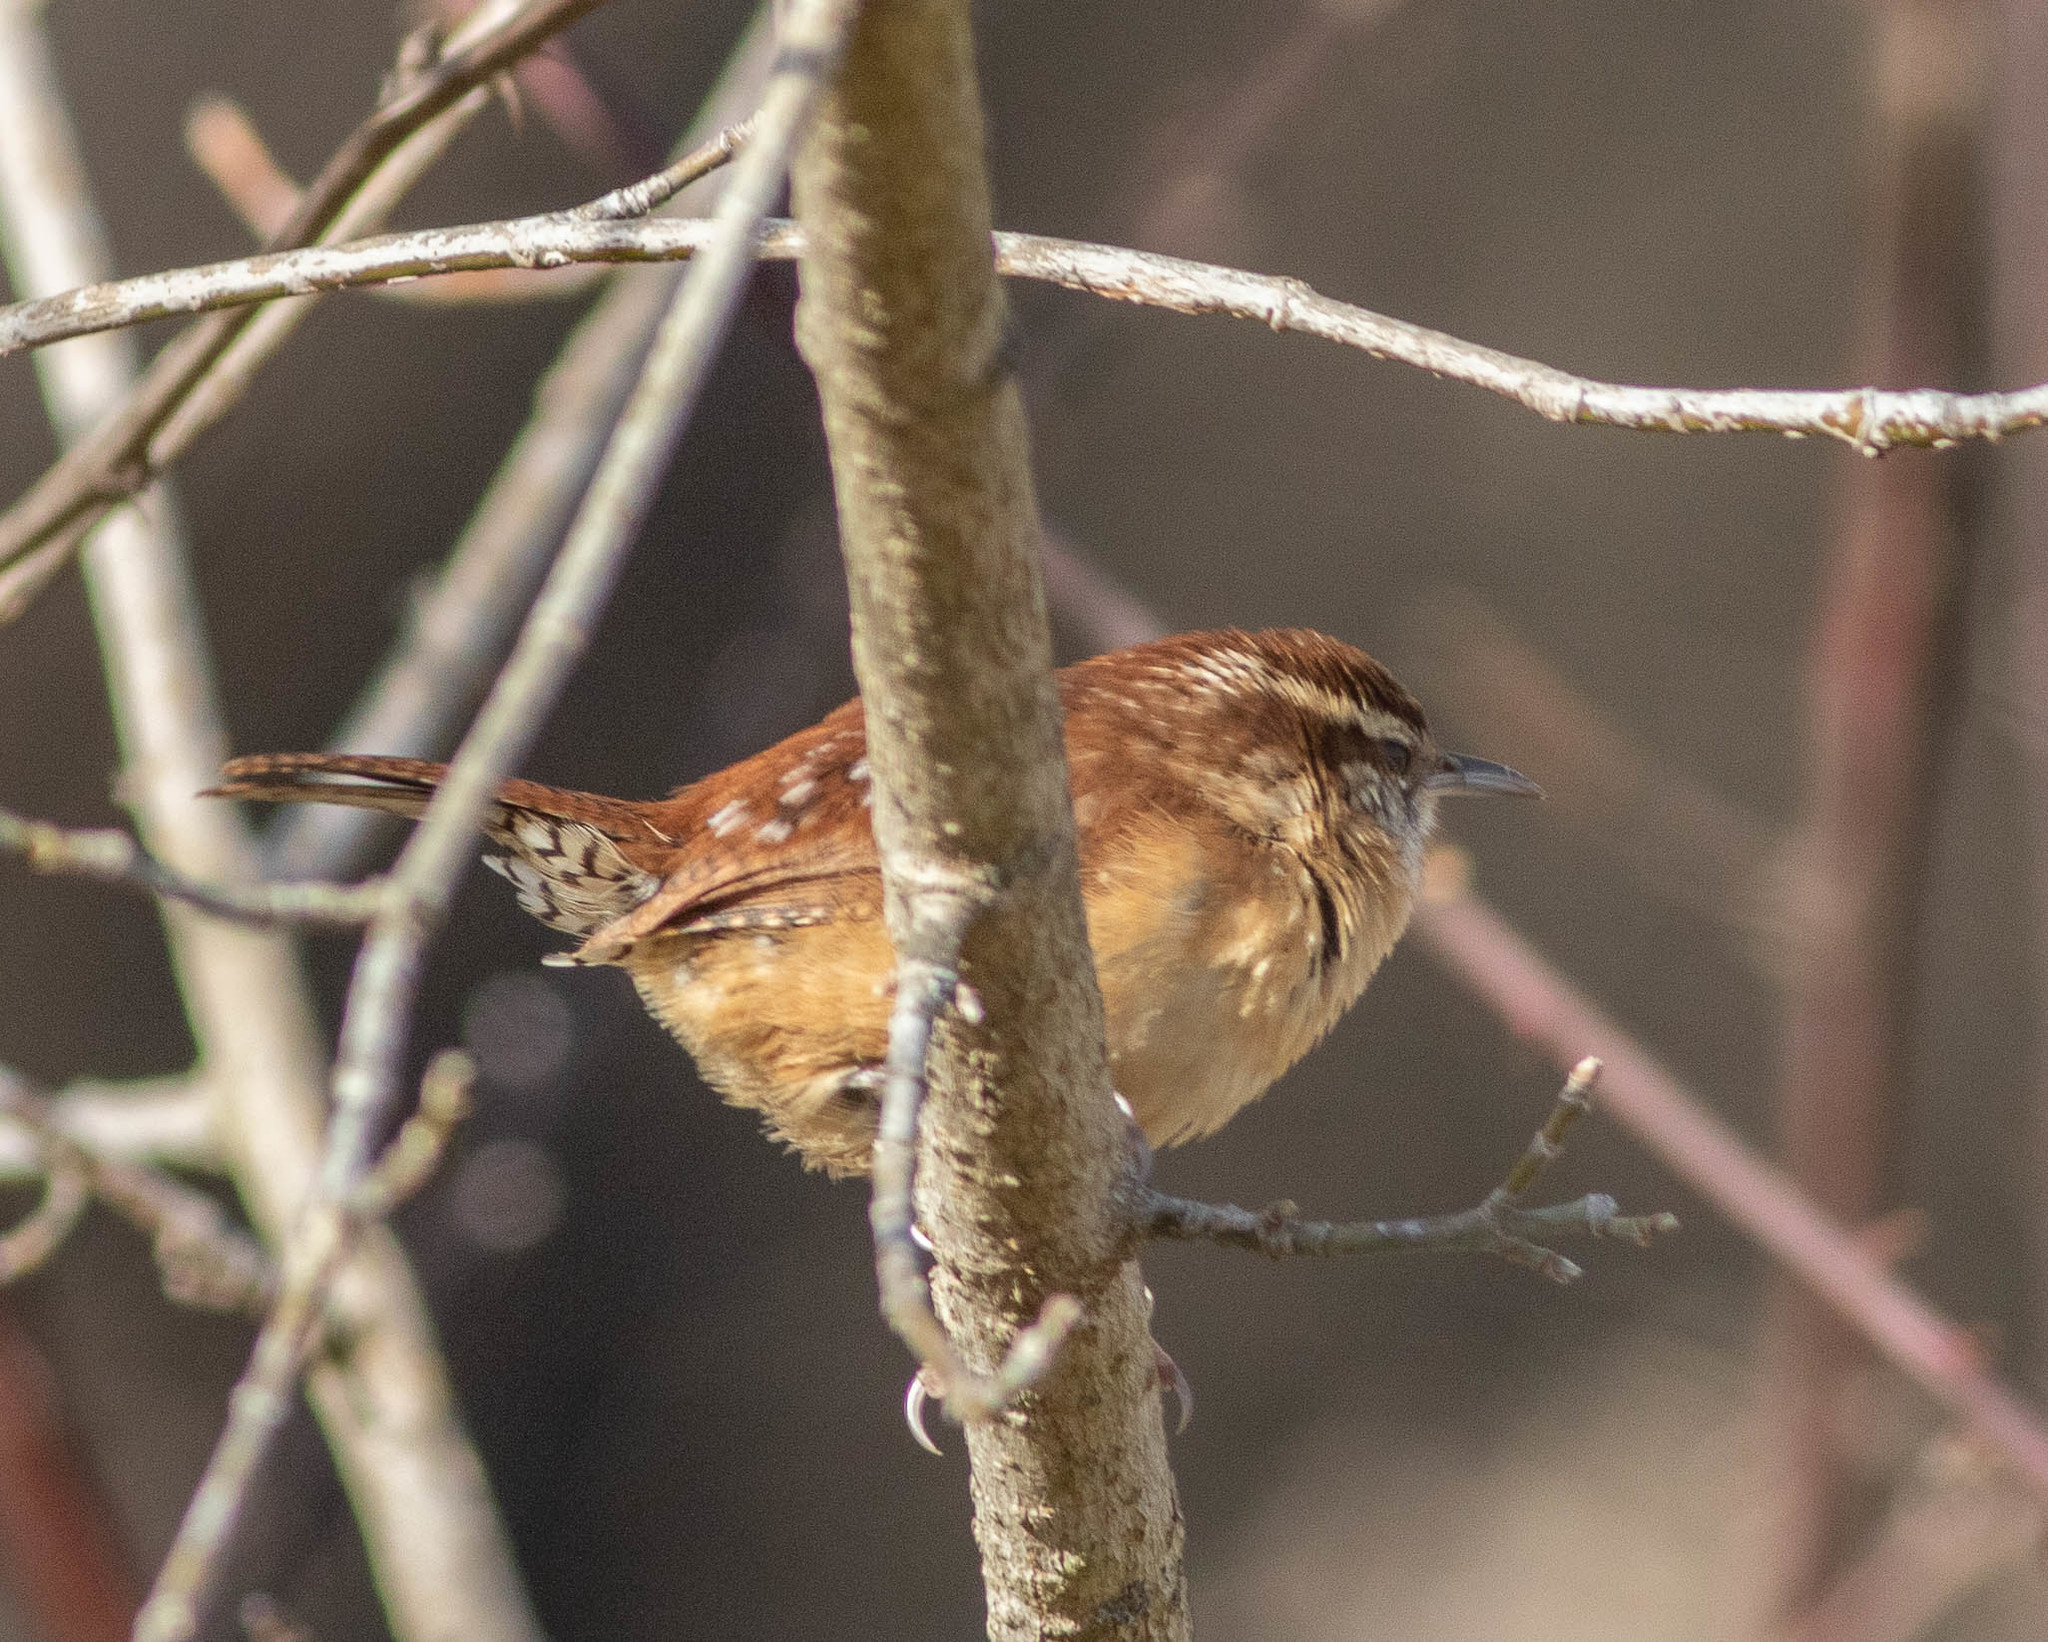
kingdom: Animalia
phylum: Chordata
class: Aves
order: Passeriformes
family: Troglodytidae
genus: Thryothorus
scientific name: Thryothorus ludovicianus
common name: Carolina wren
